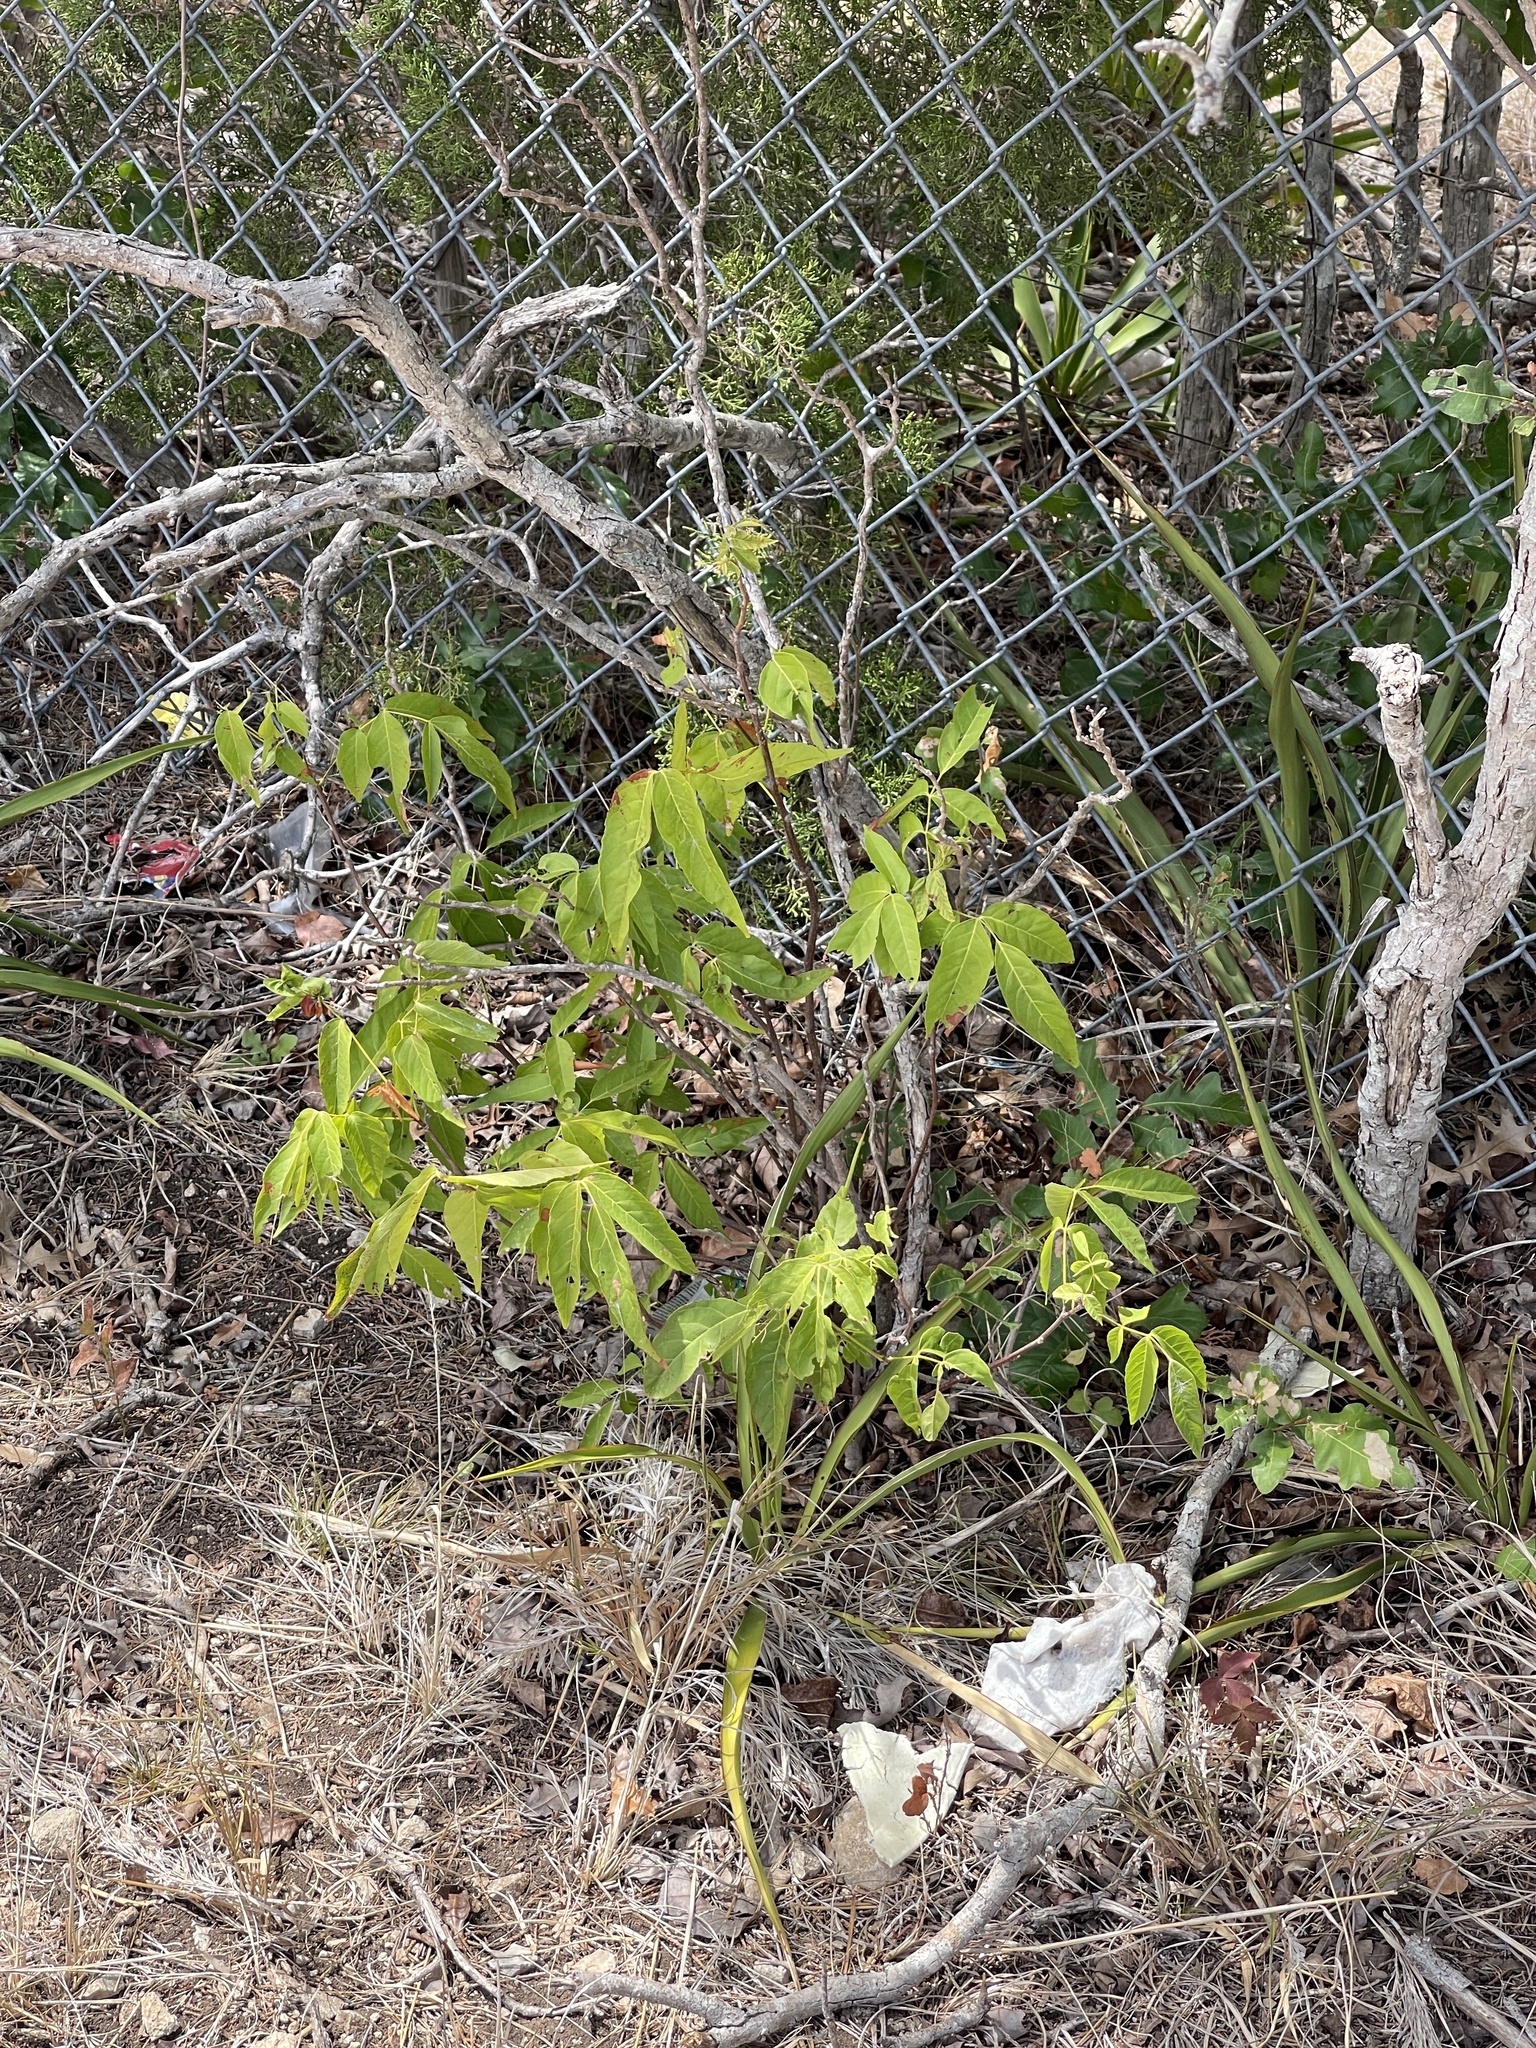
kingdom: Plantae
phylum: Tracheophyta
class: Magnoliopsida
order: Sapindales
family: Sapindaceae
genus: Ungnadia
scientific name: Ungnadia speciosa
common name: Texas-buckeye
